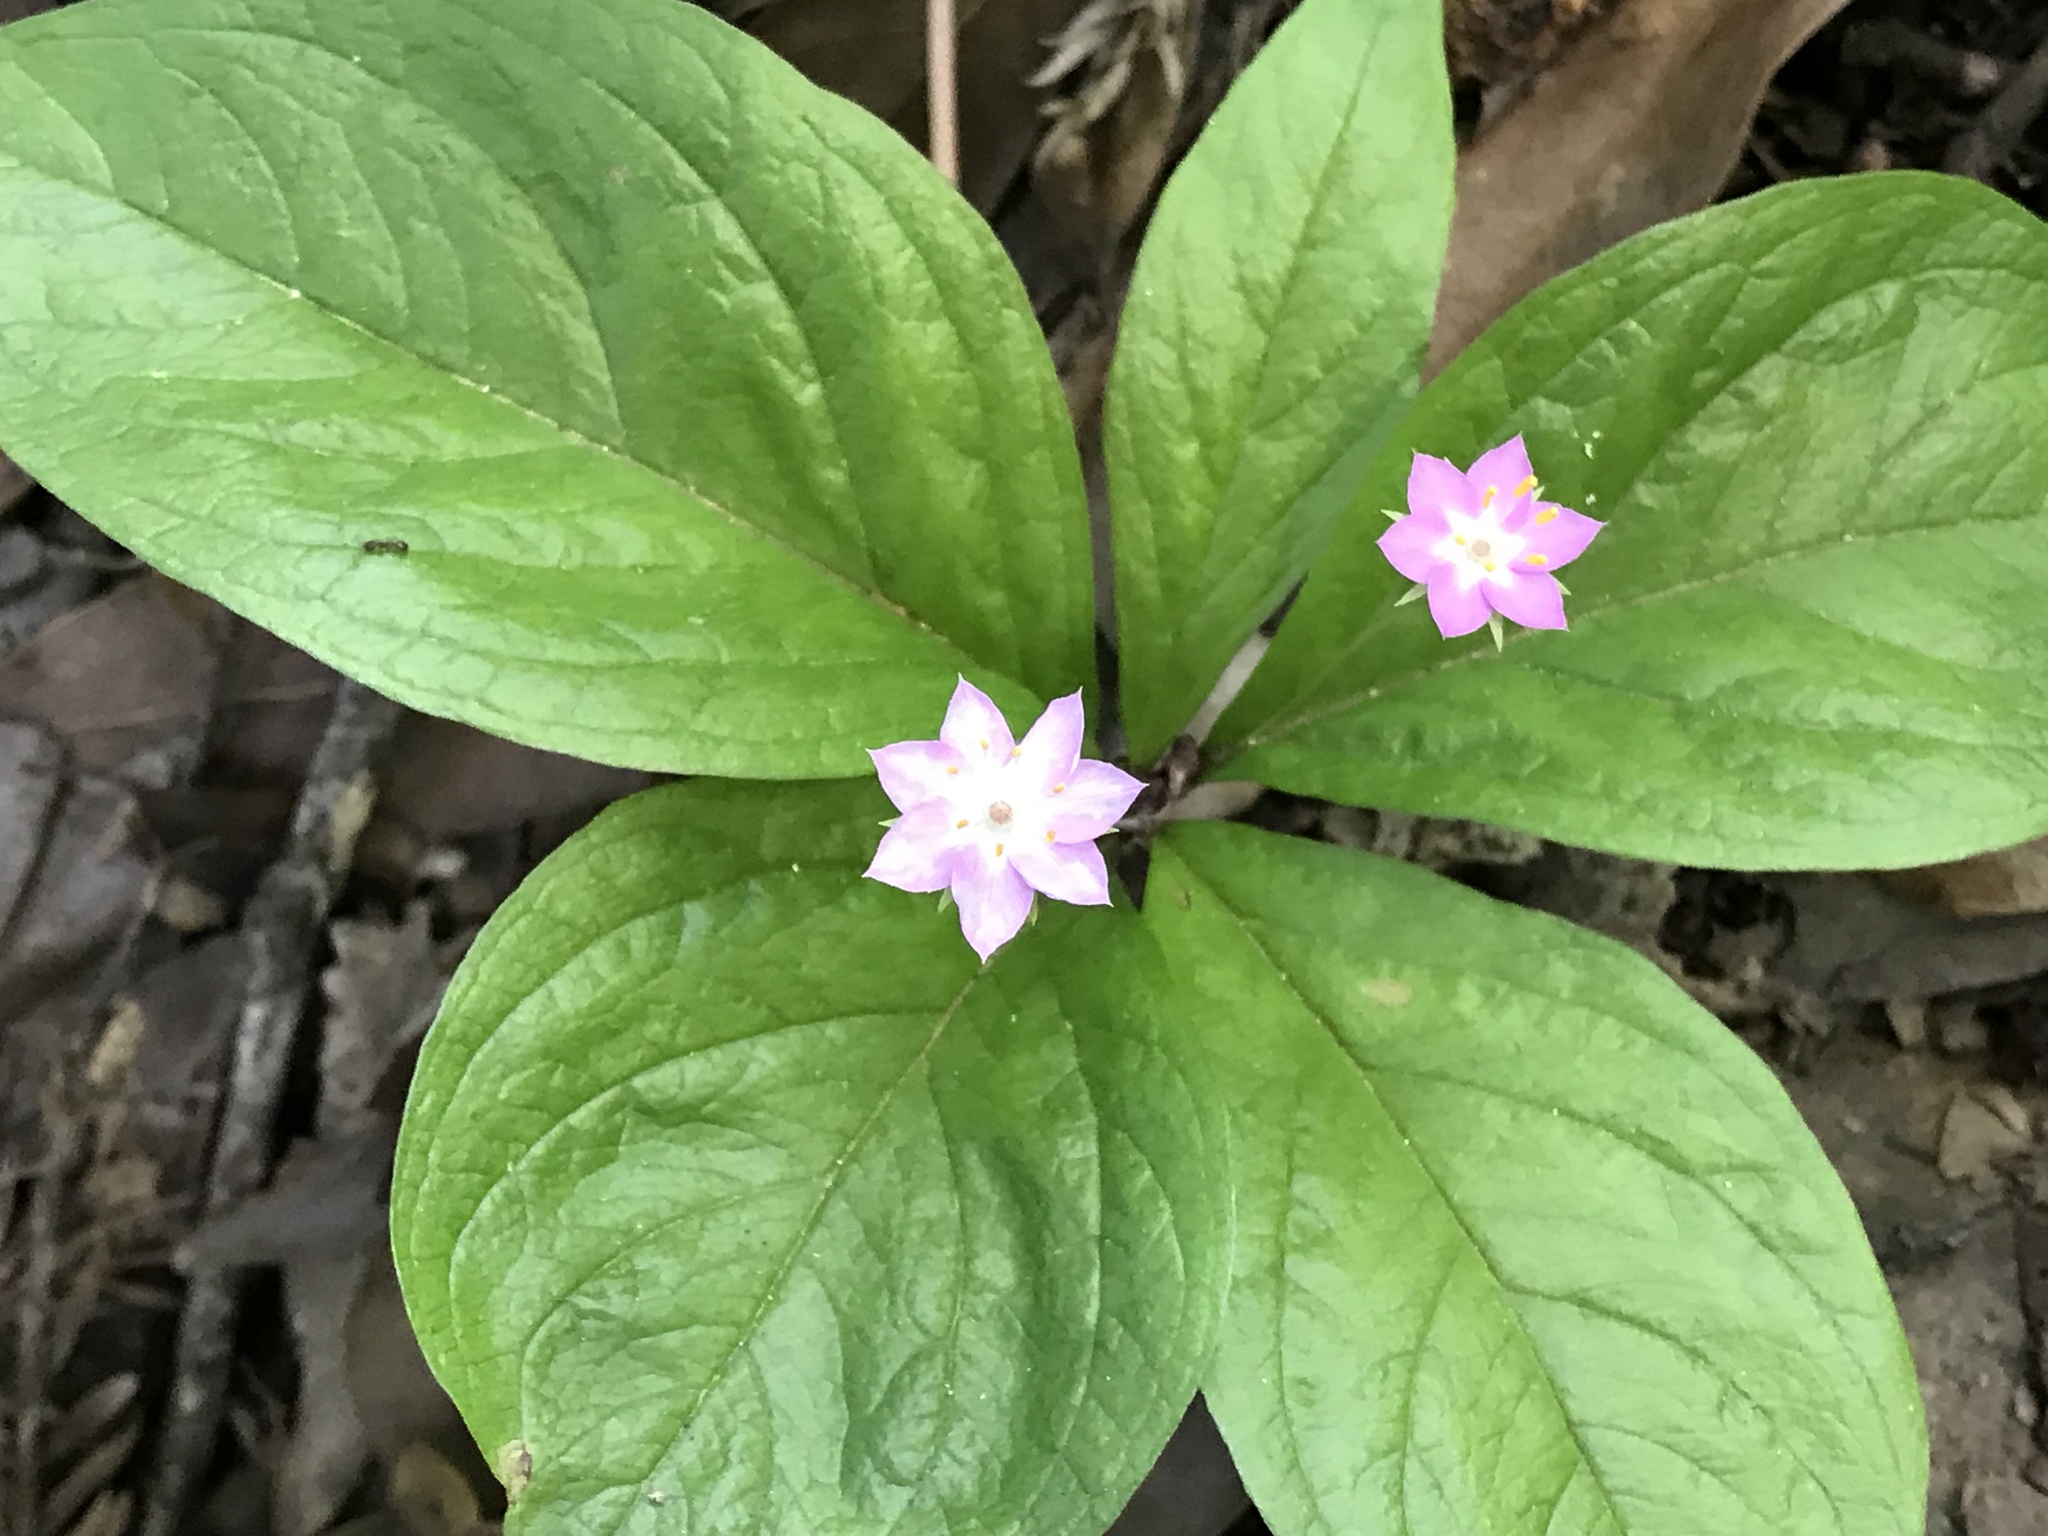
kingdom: Plantae
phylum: Tracheophyta
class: Magnoliopsida
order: Ericales
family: Primulaceae
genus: Lysimachia
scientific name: Lysimachia latifolia
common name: Pacific starflower
